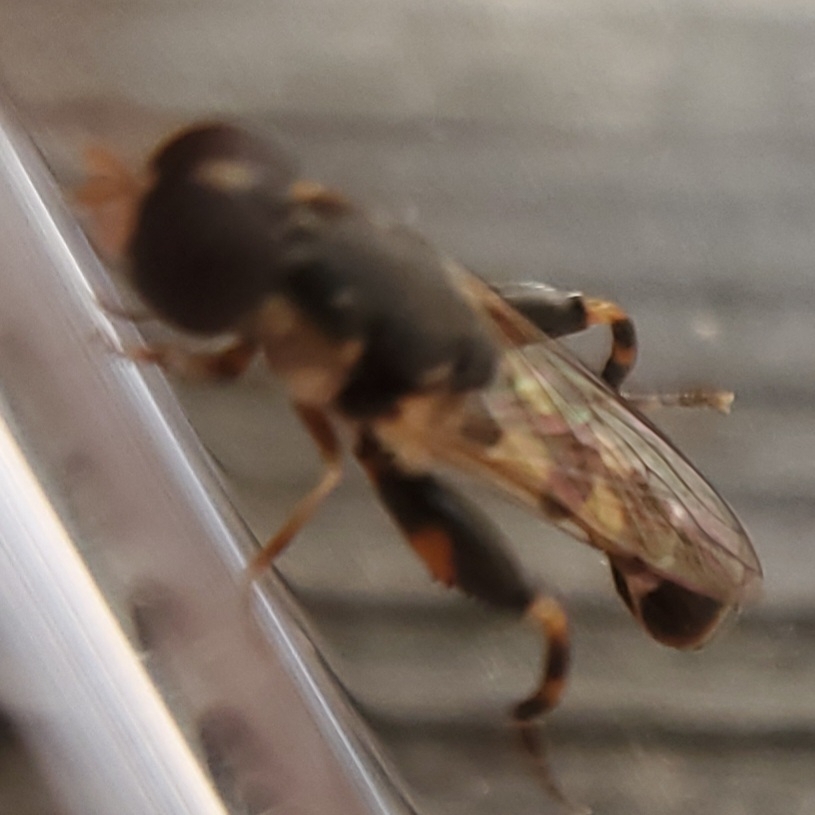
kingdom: Animalia
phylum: Arthropoda
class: Insecta
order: Diptera
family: Syrphidae
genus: Syritta
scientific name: Syritta pipiens
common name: Hover fly
